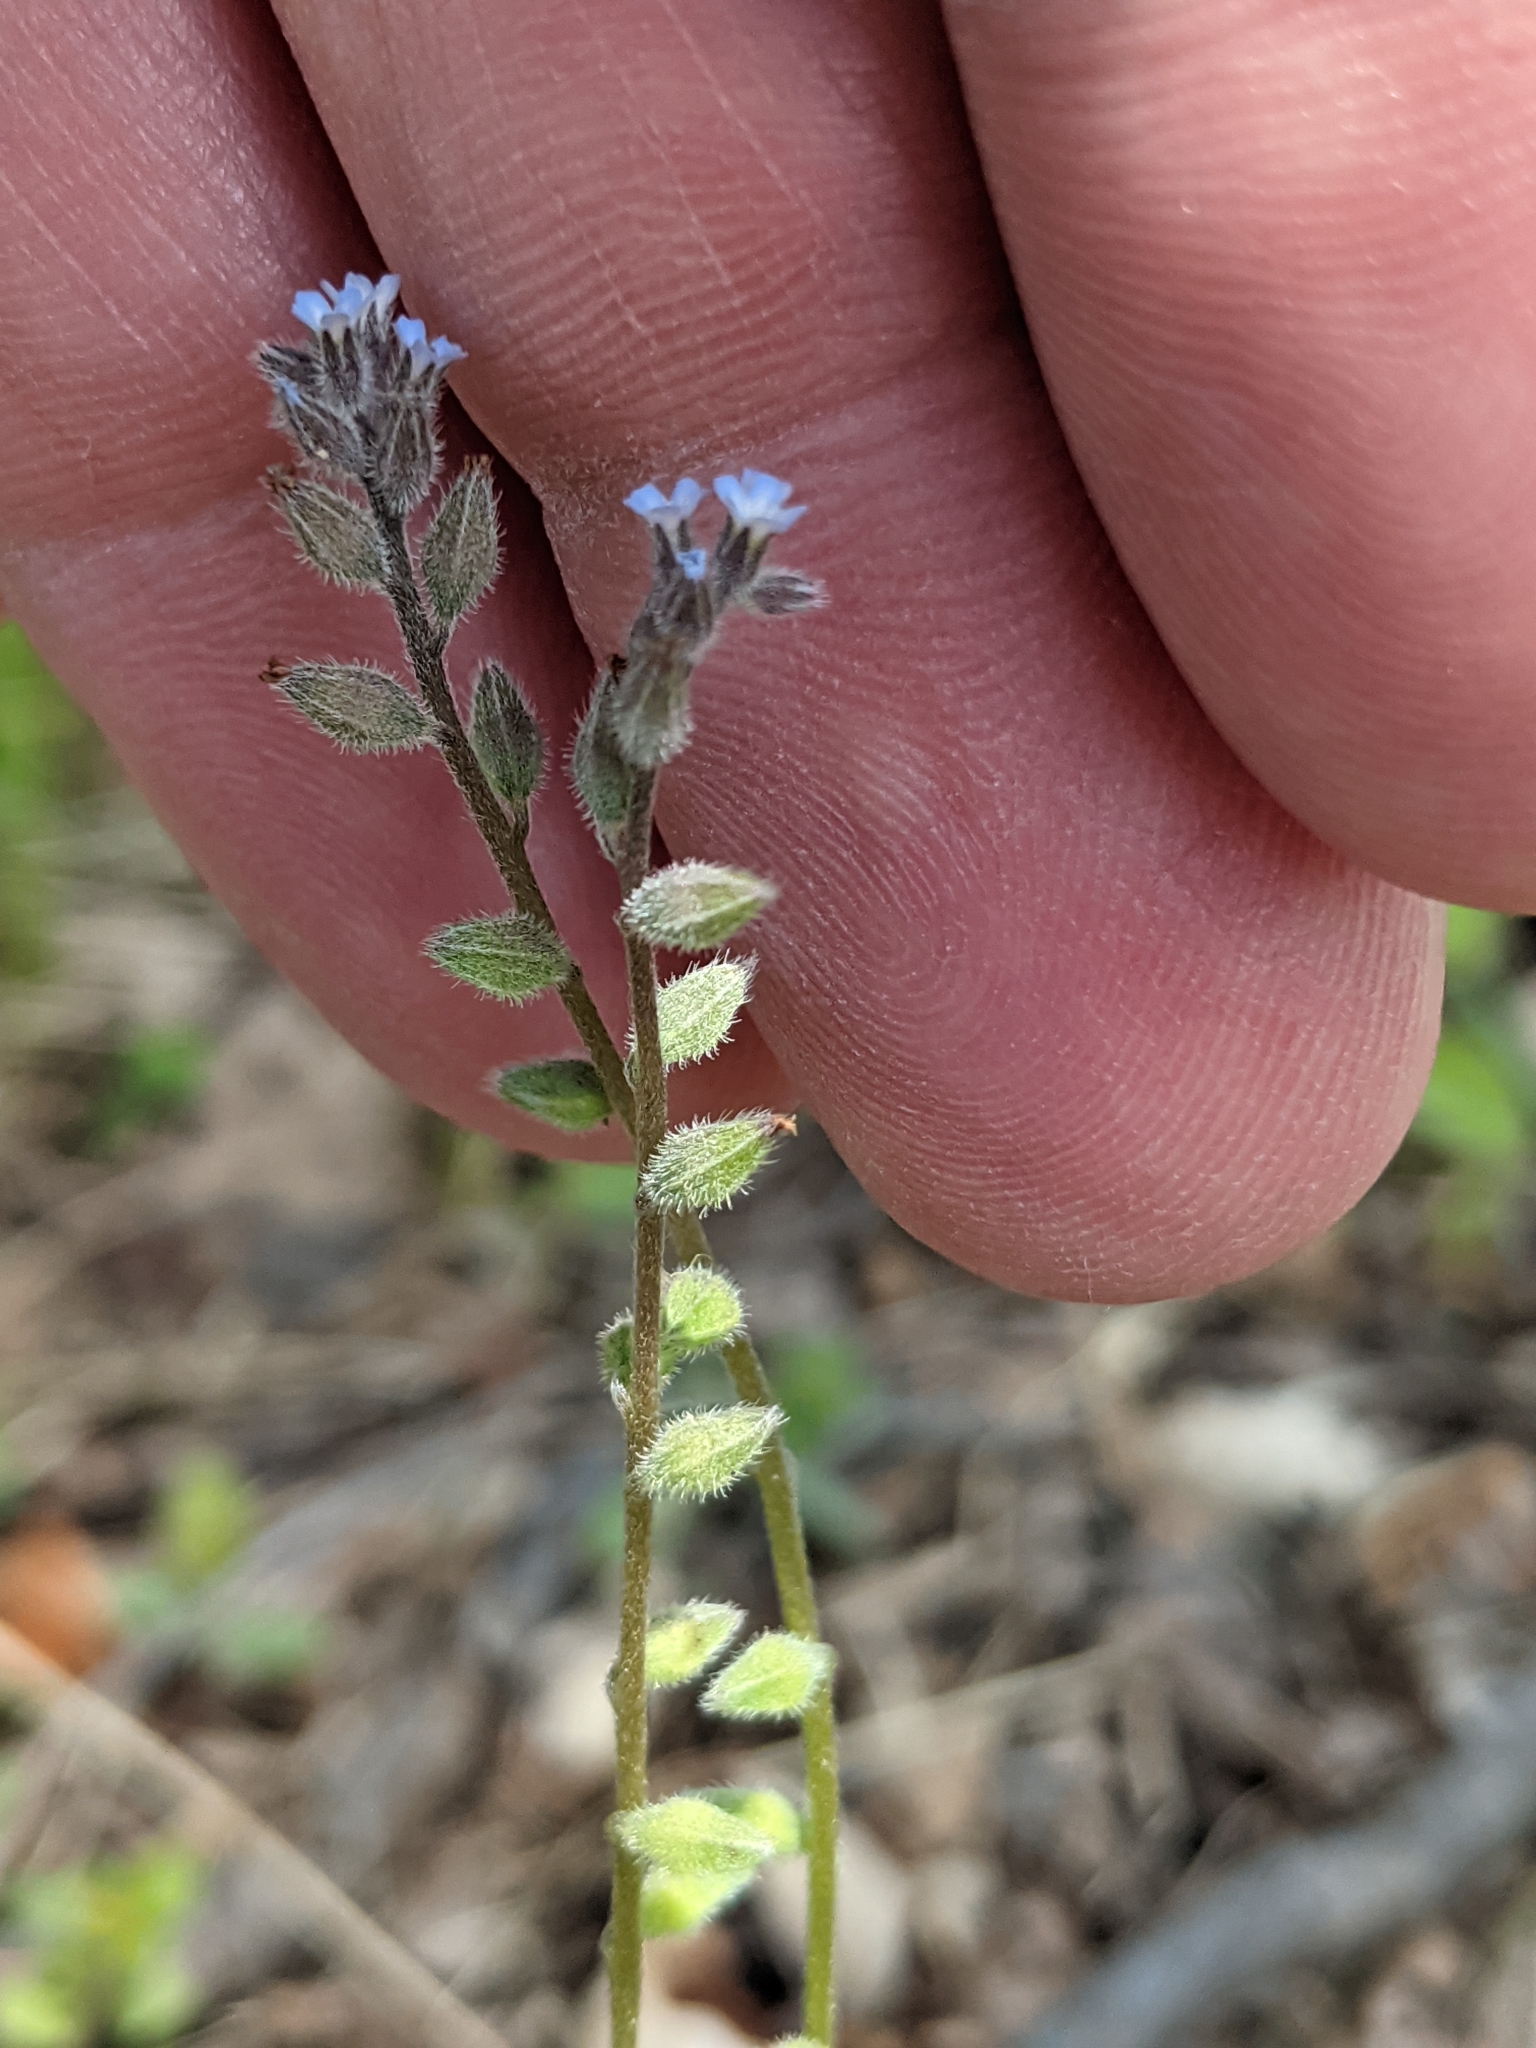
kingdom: Plantae
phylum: Tracheophyta
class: Magnoliopsida
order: Boraginales
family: Boraginaceae
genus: Myosotis
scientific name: Myosotis stricta
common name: Strict forget-me-not
